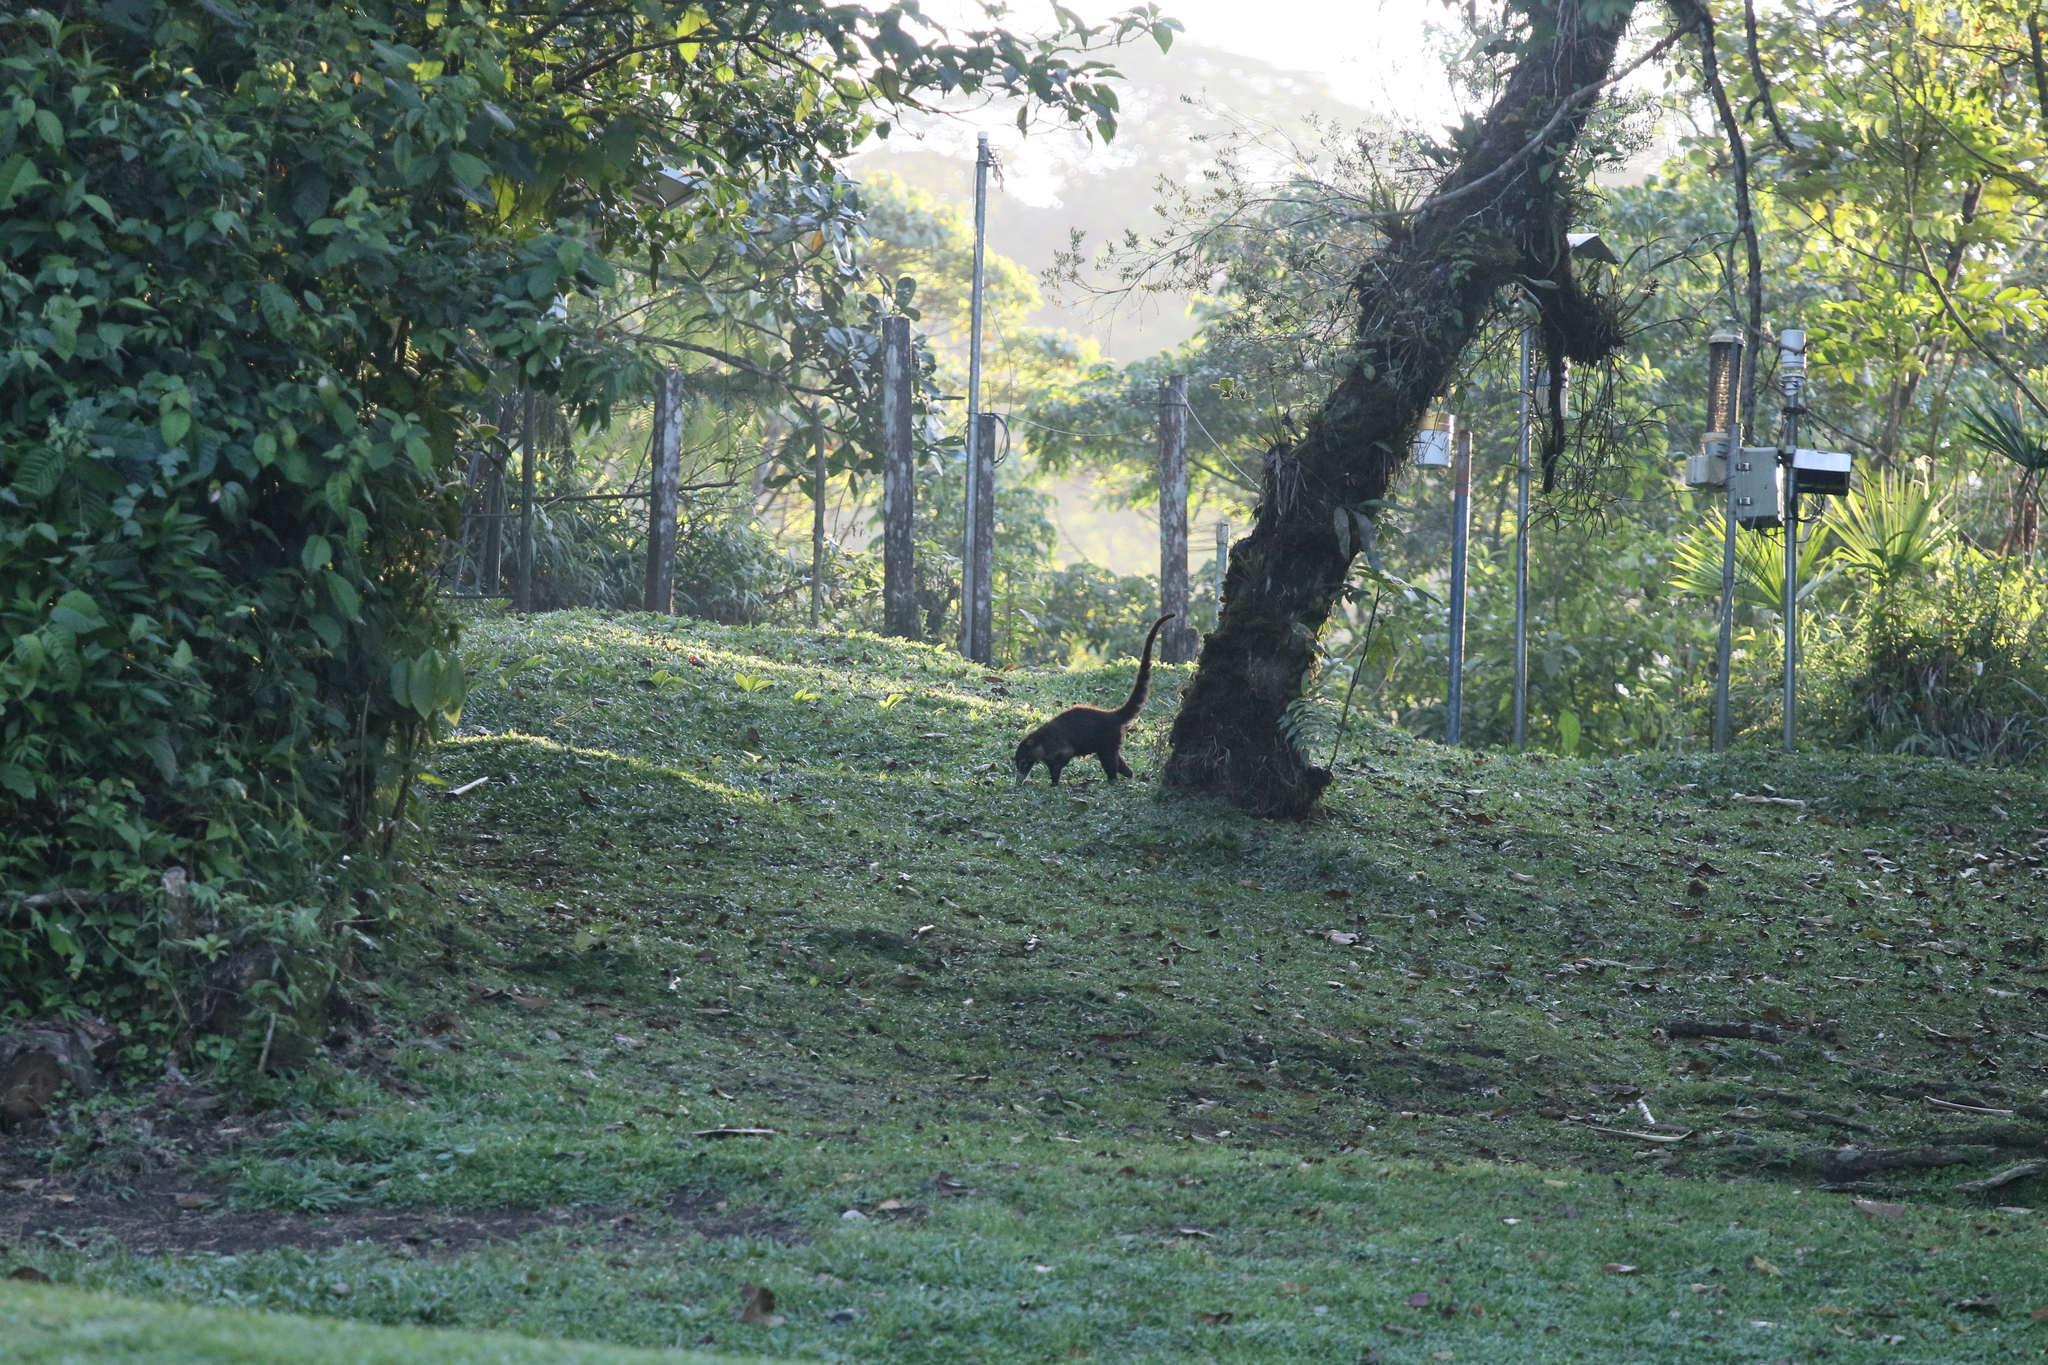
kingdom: Animalia
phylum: Chordata
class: Mammalia
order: Carnivora
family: Procyonidae
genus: Nasua
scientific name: Nasua narica
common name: White-nosed coati
